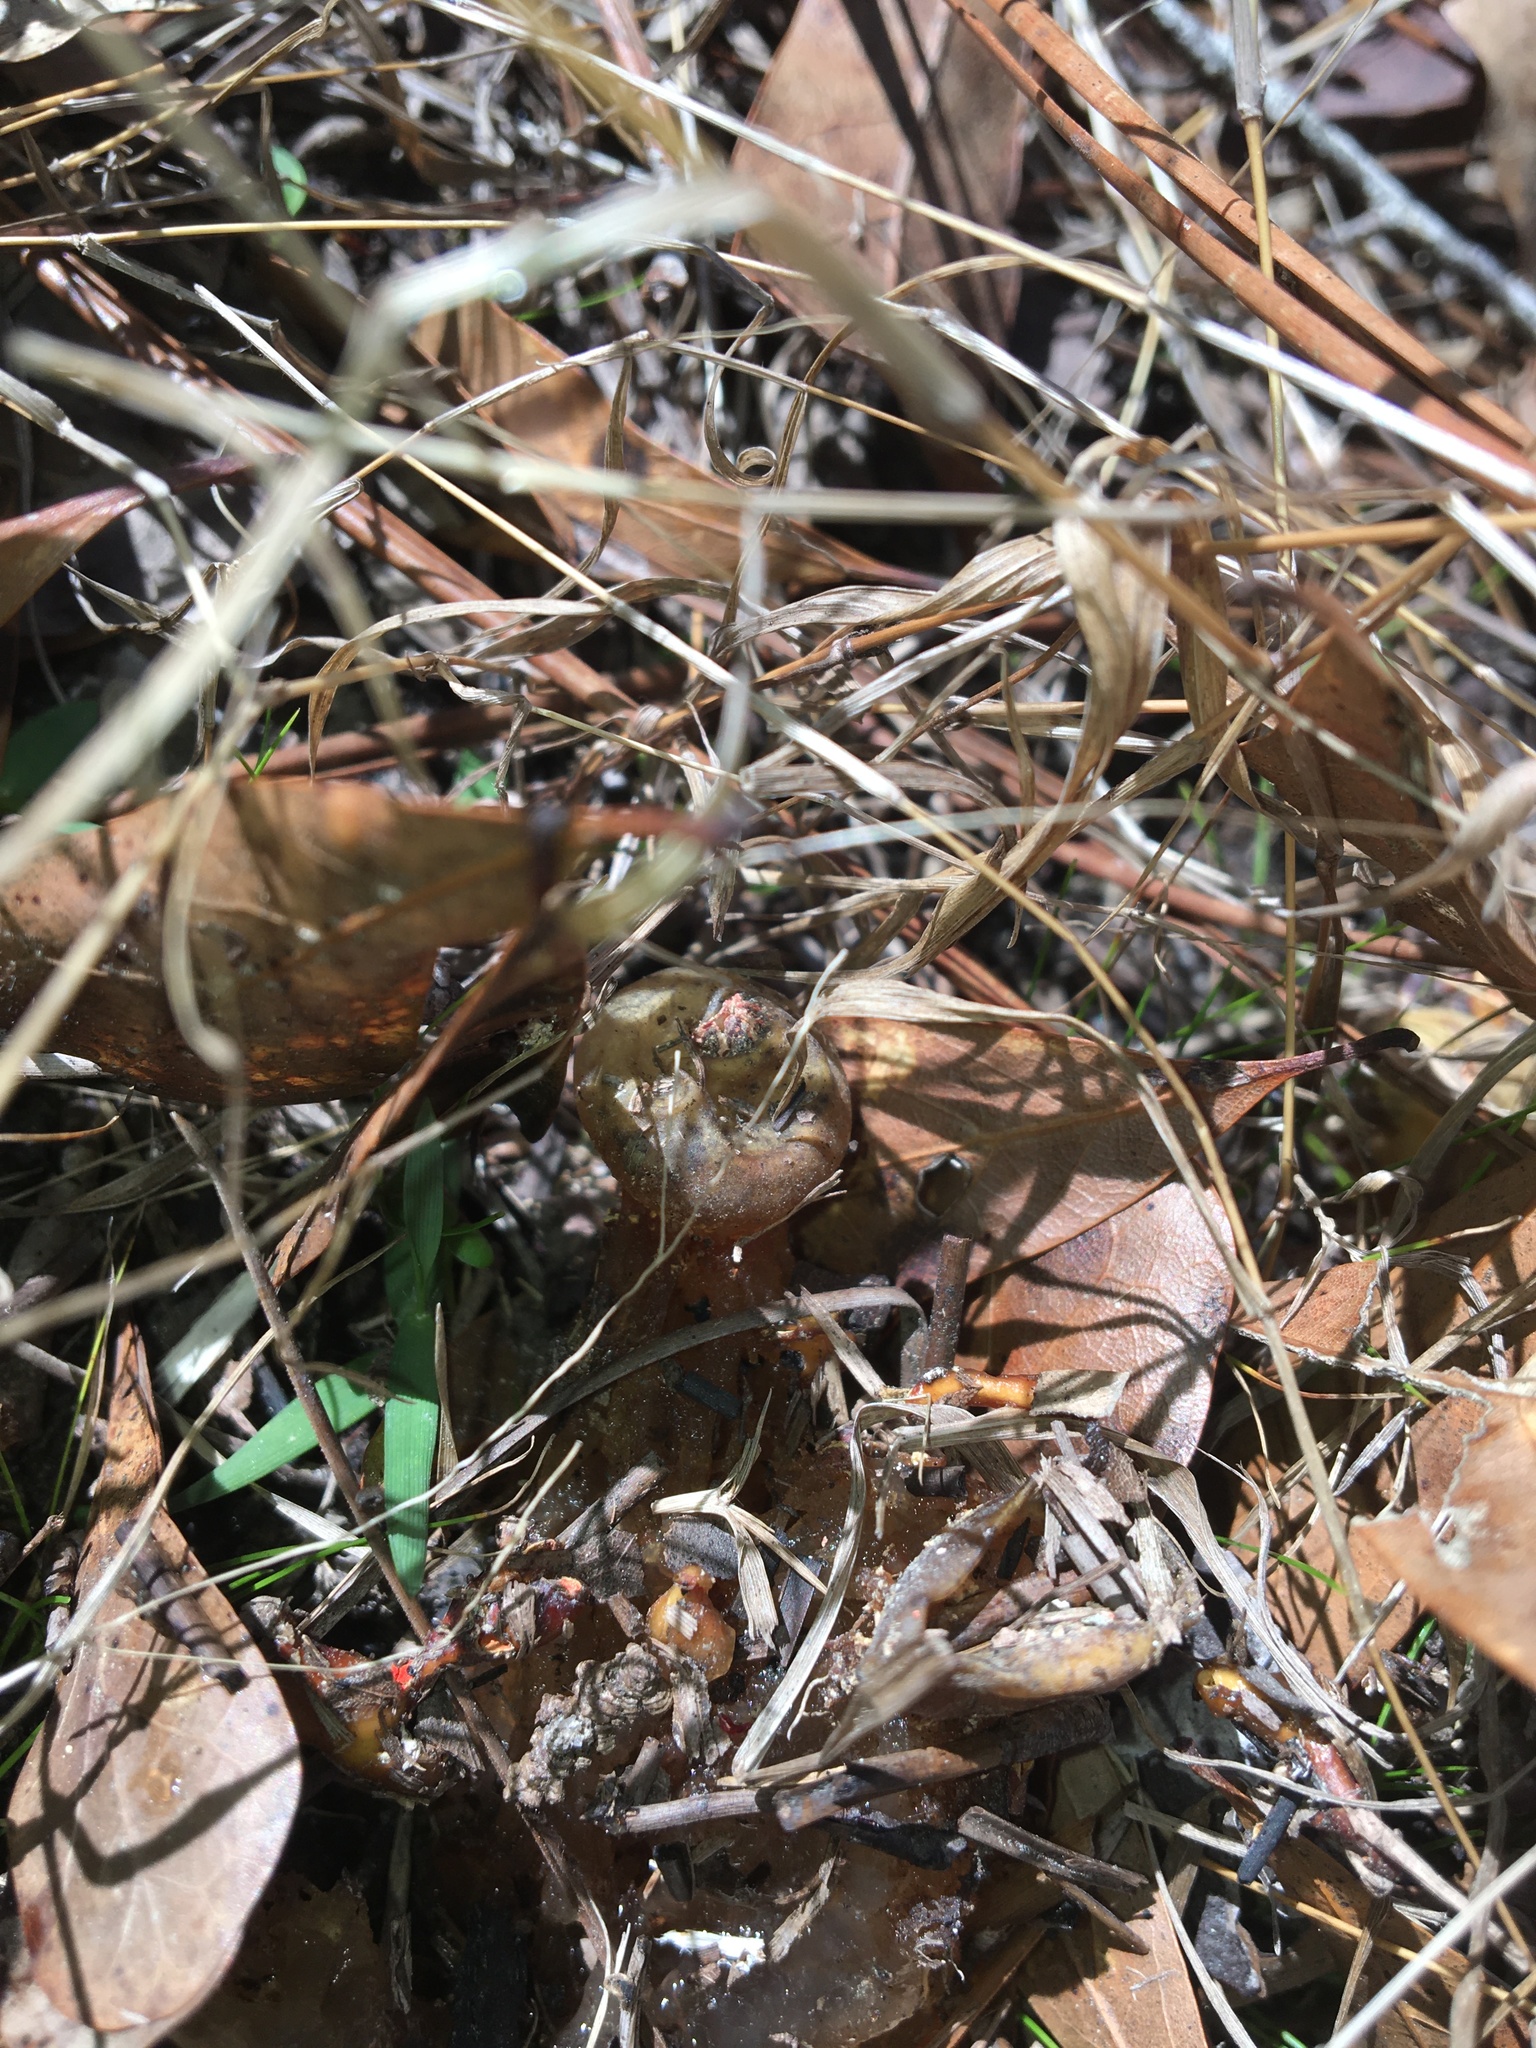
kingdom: Fungi
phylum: Basidiomycota
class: Agaricomycetes
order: Boletales
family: Calostomataceae
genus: Calostoma
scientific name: Calostoma cinnabarinum
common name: Stalked puffball-in-aspic
